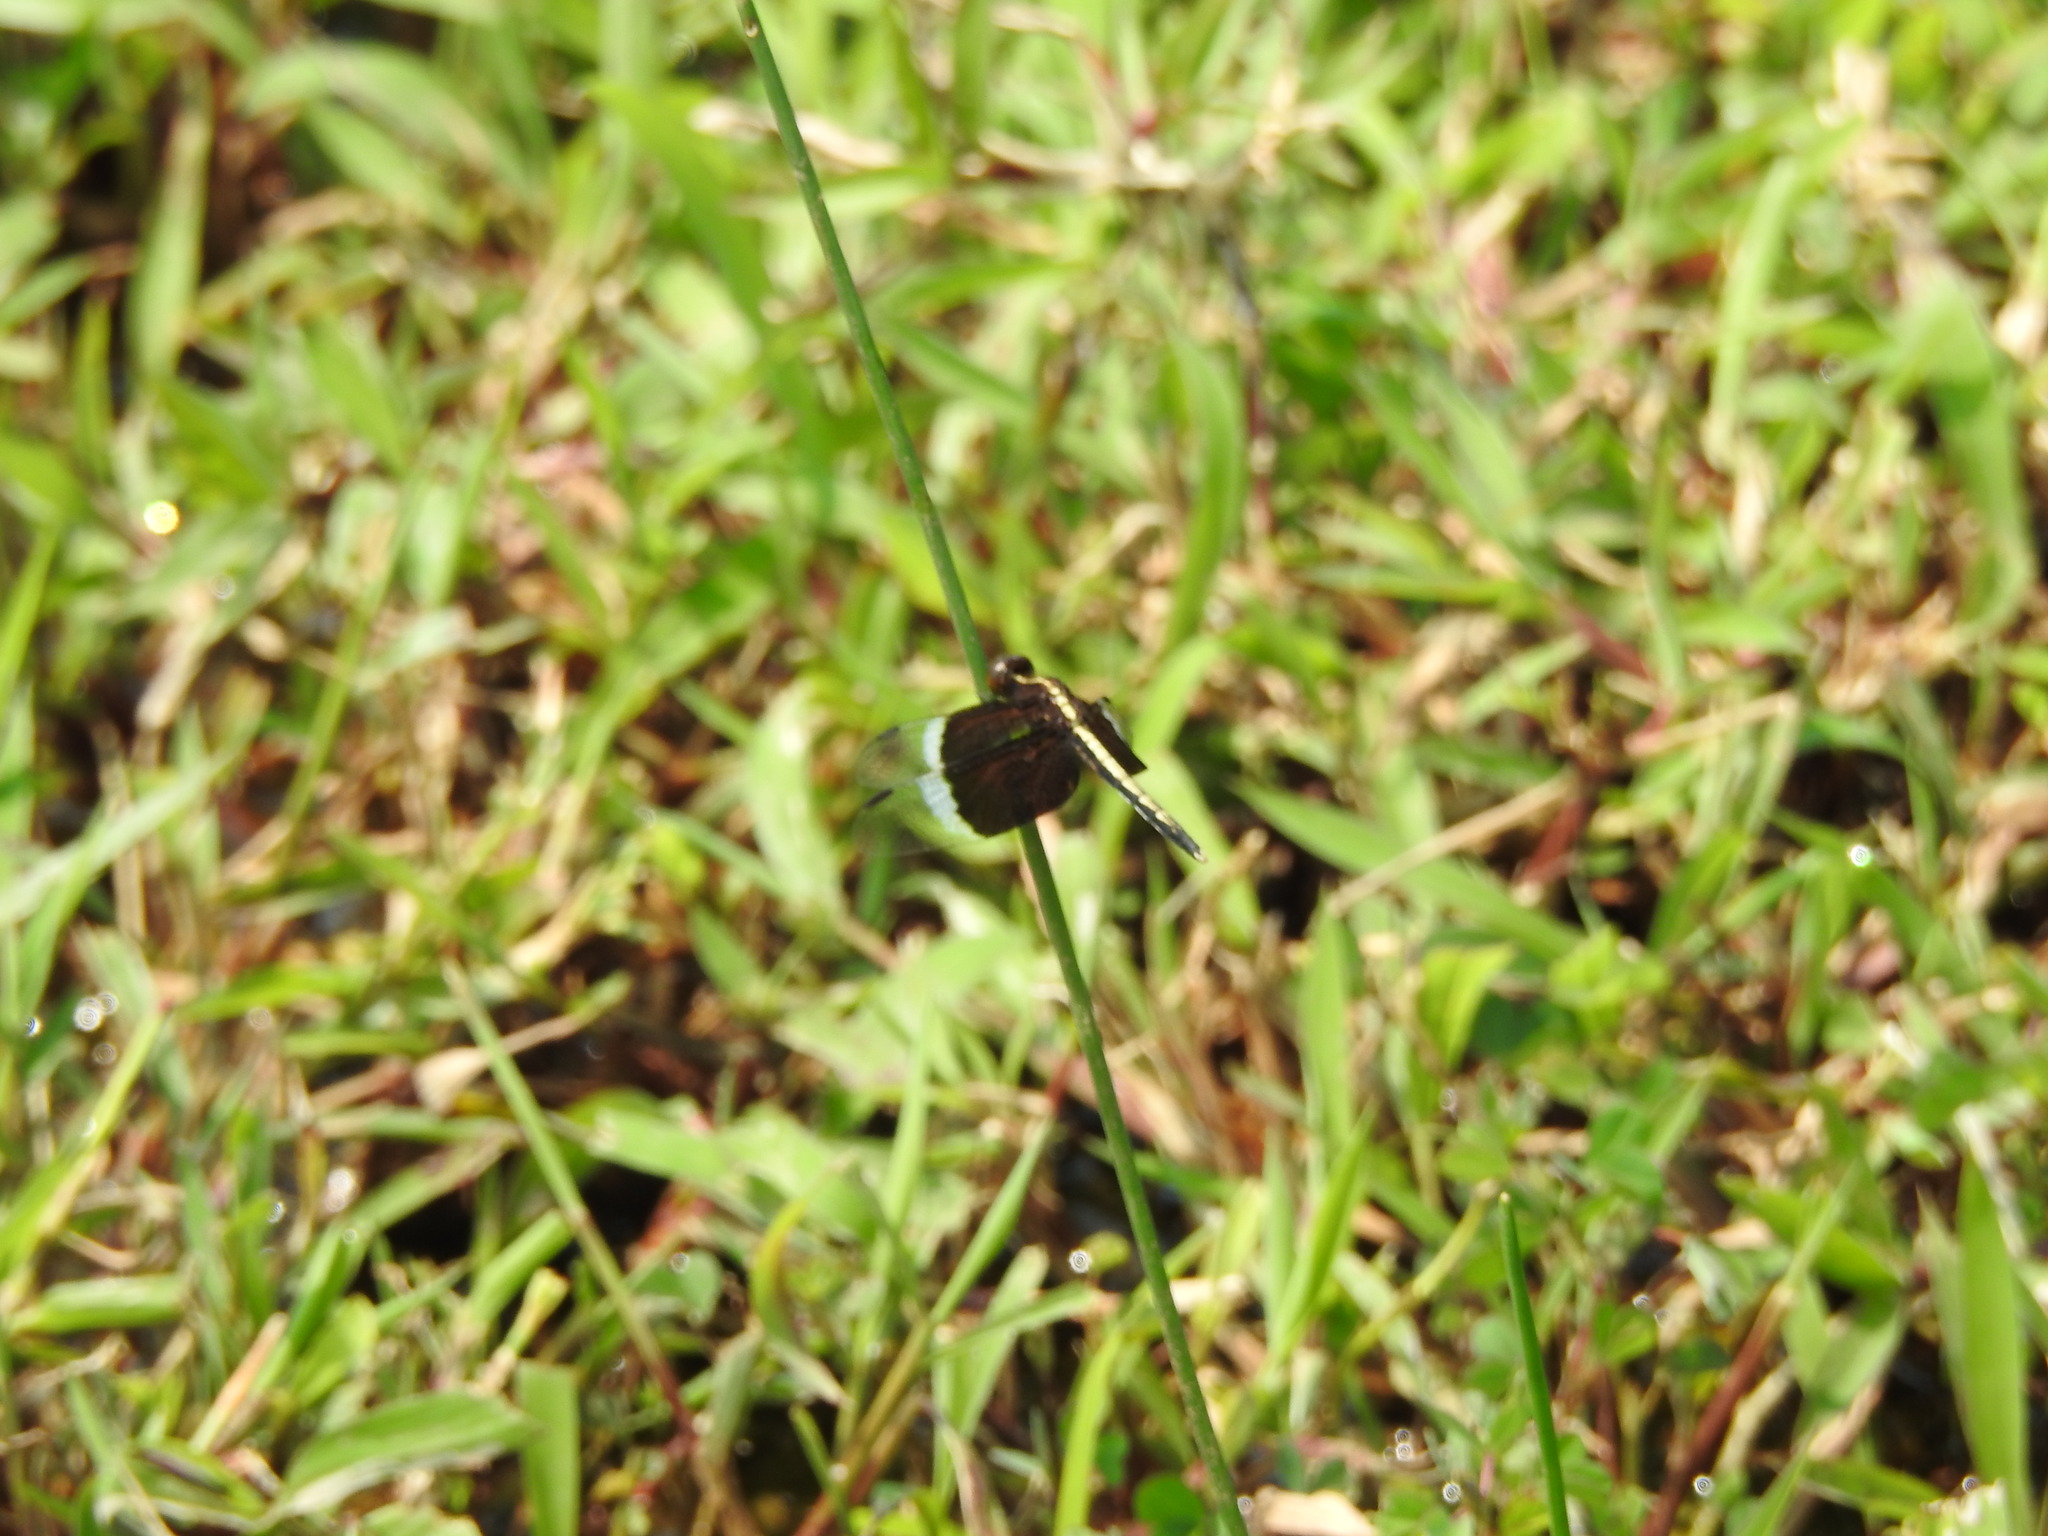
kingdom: Animalia
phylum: Arthropoda
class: Insecta
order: Odonata
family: Libellulidae
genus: Neurothemis
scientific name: Neurothemis tullia
